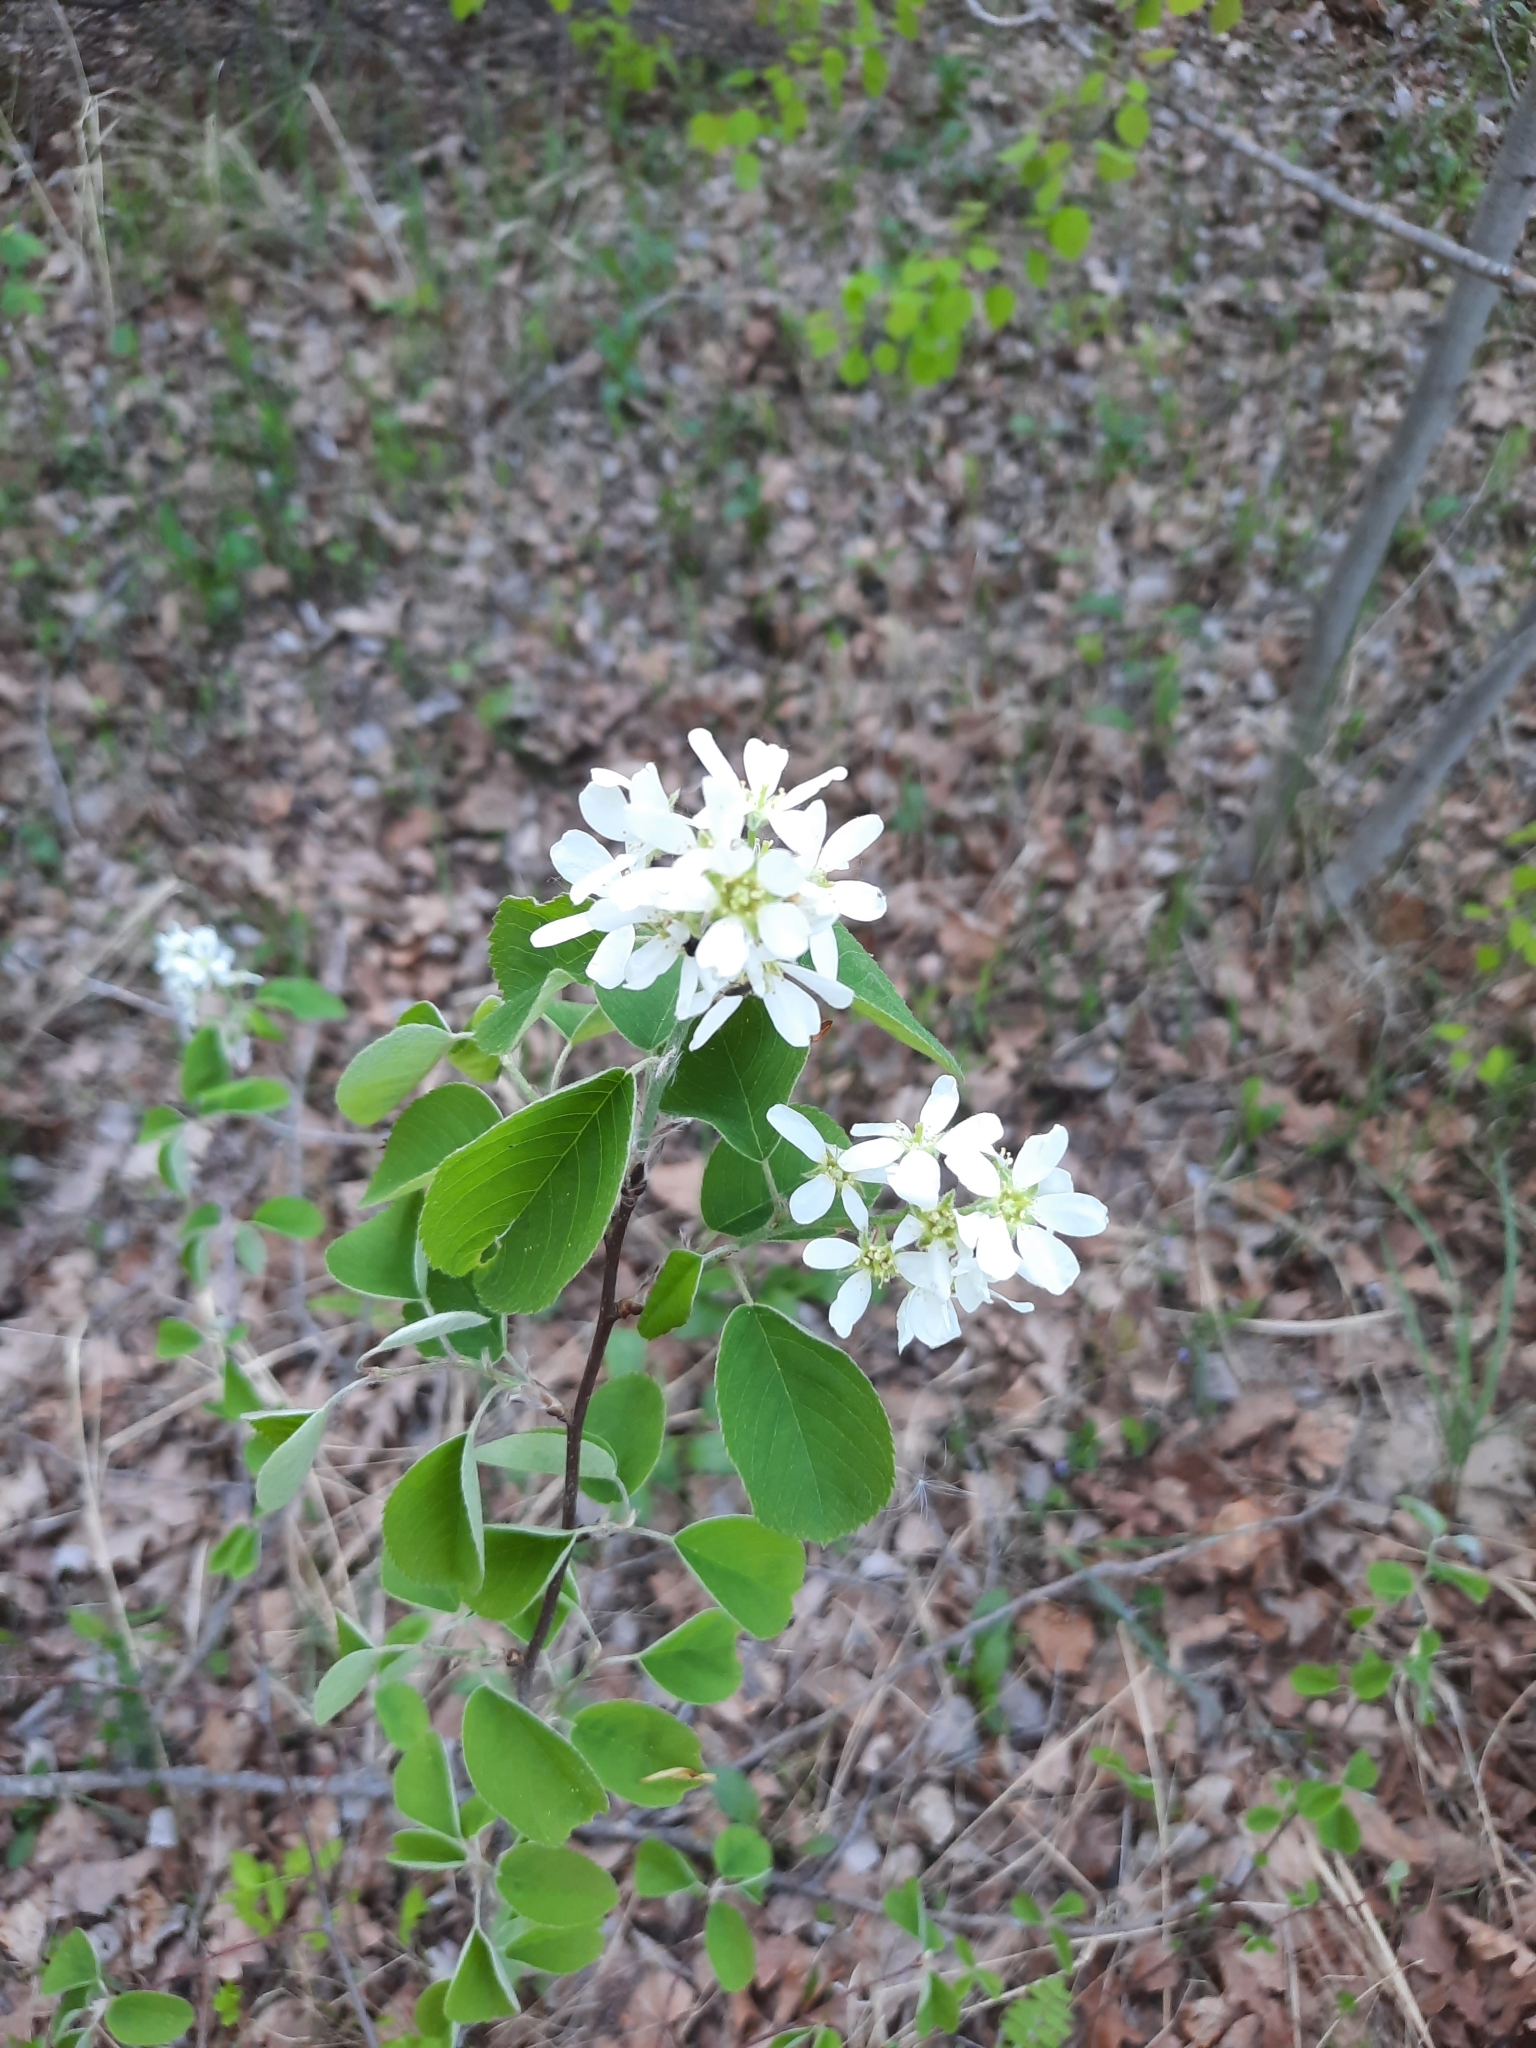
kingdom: Plantae
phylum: Tracheophyta
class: Magnoliopsida
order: Rosales
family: Rosaceae
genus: Amelanchier
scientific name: Amelanchier
